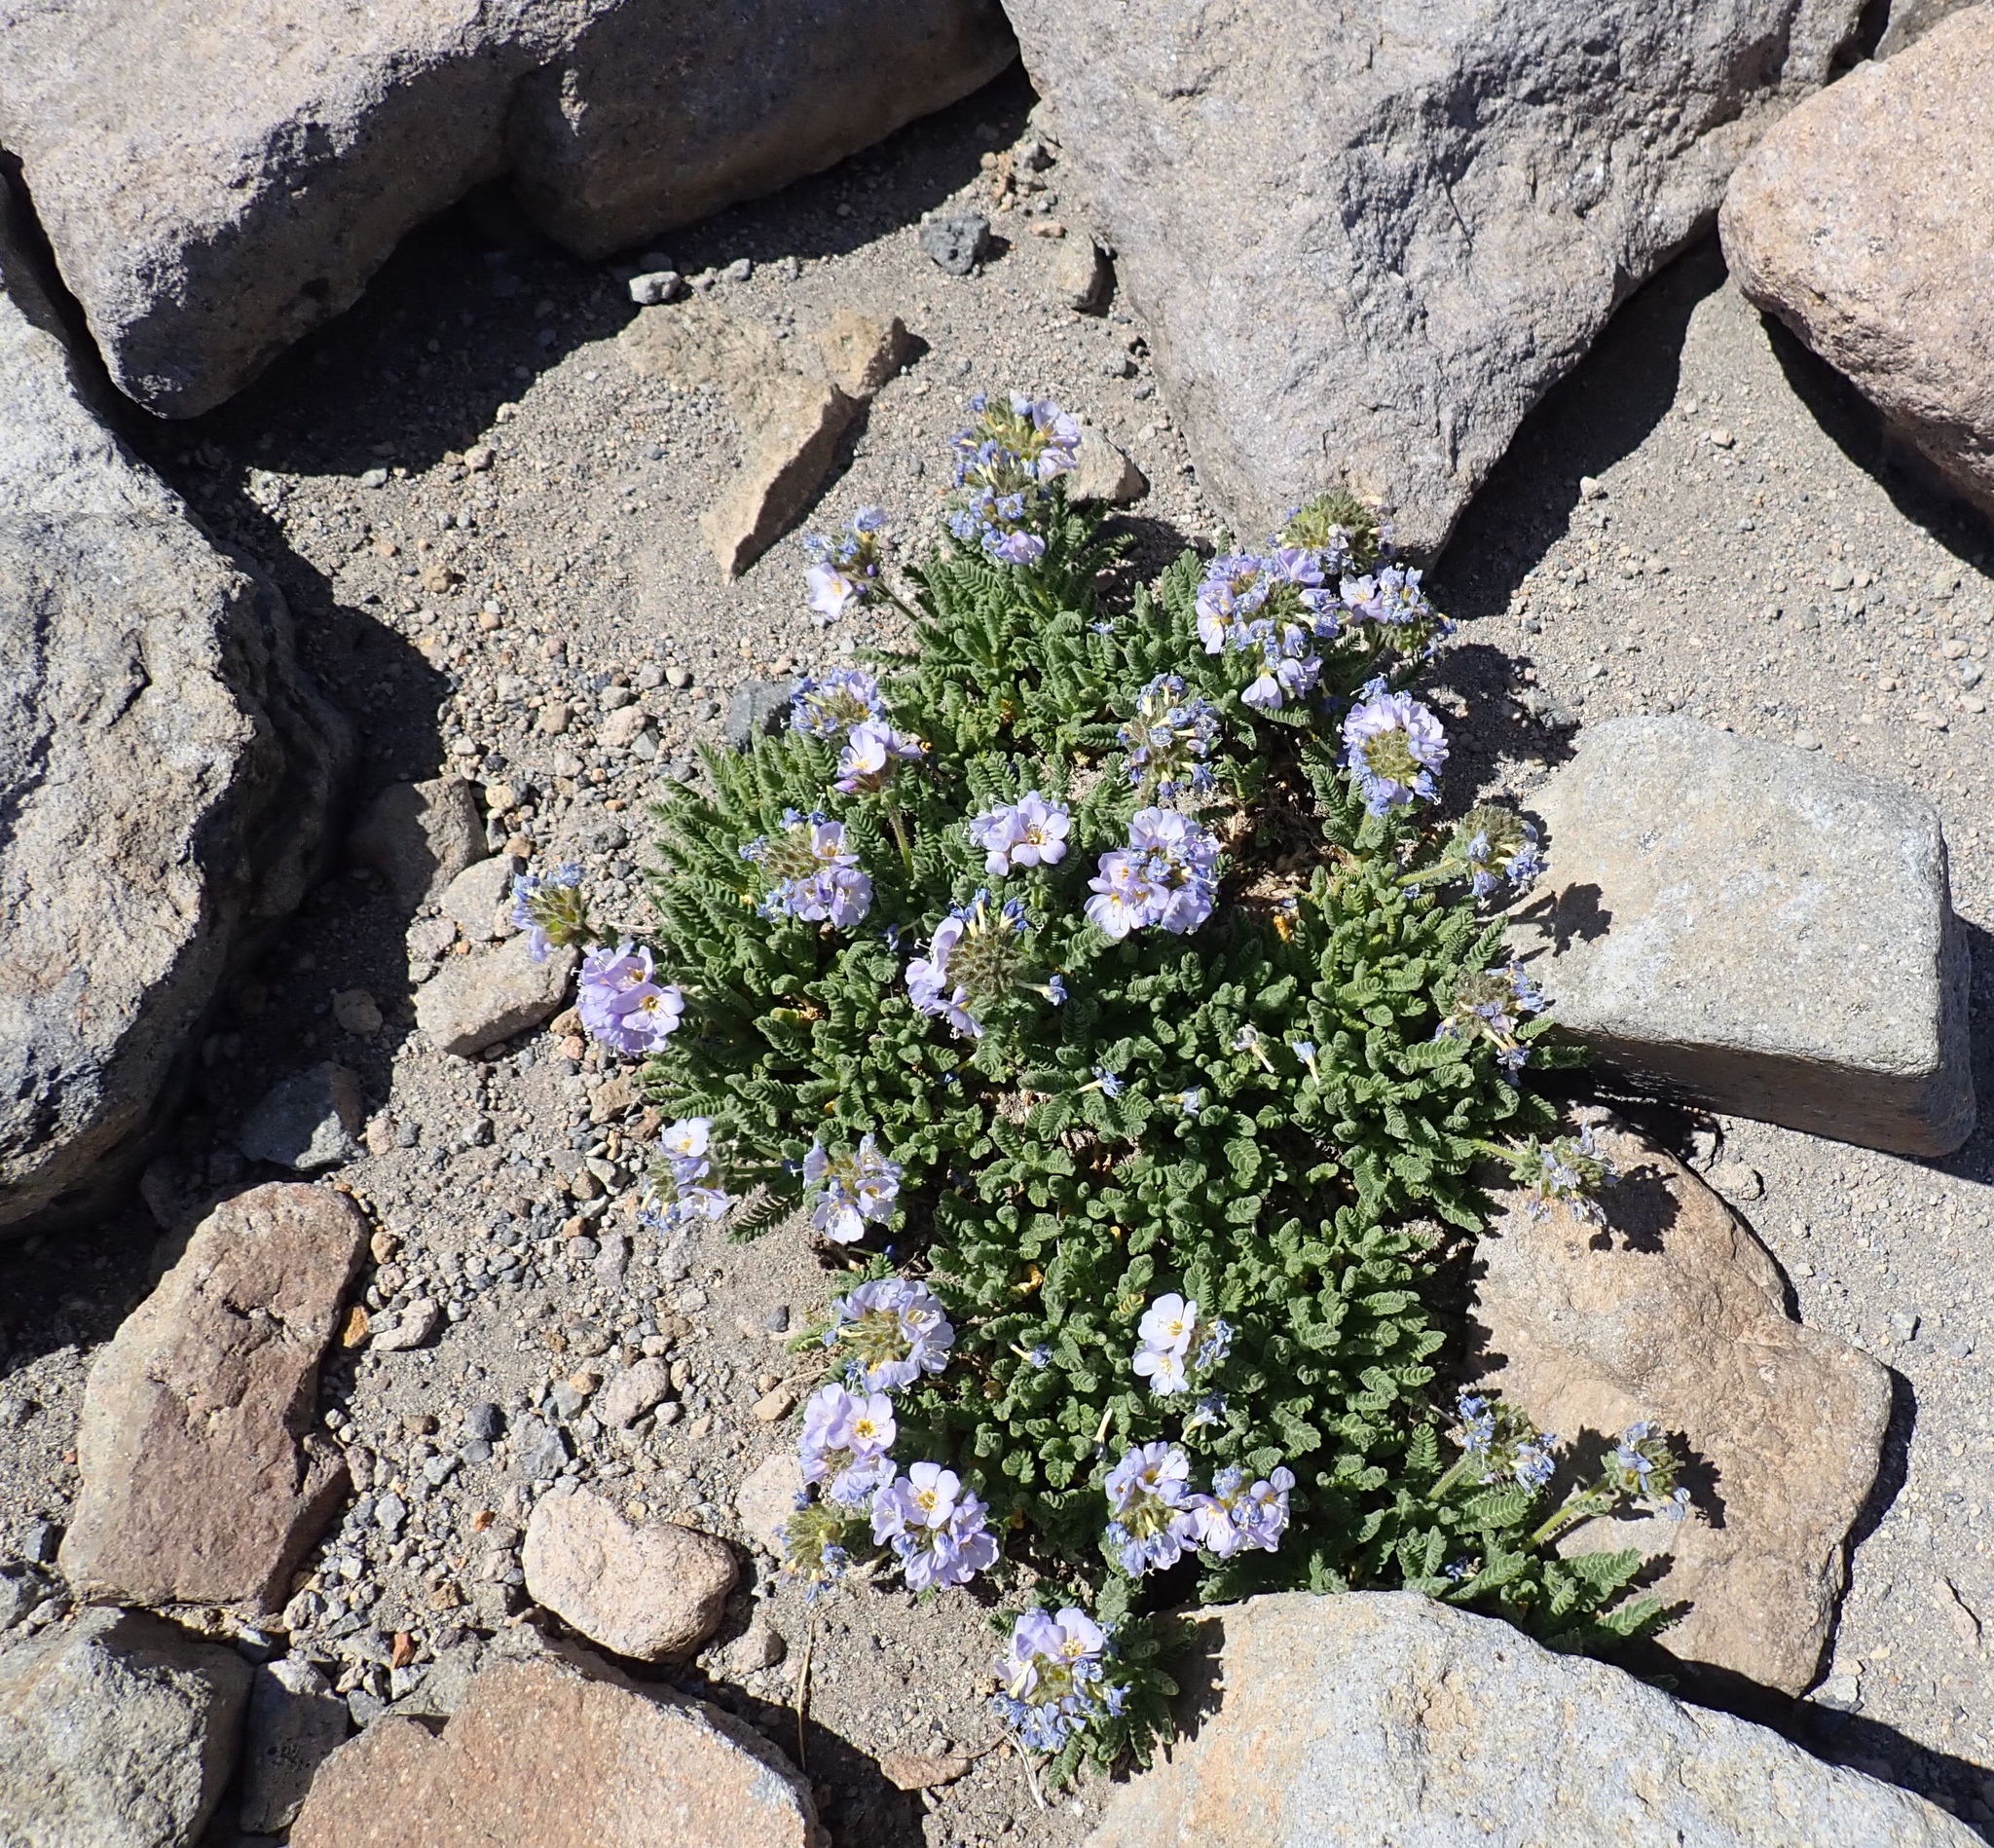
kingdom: Plantae
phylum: Tracheophyta
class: Magnoliopsida
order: Ericales
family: Polemoniaceae
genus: Polemonium
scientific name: Polemonium elegans
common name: Elegant jacob's-ladder
